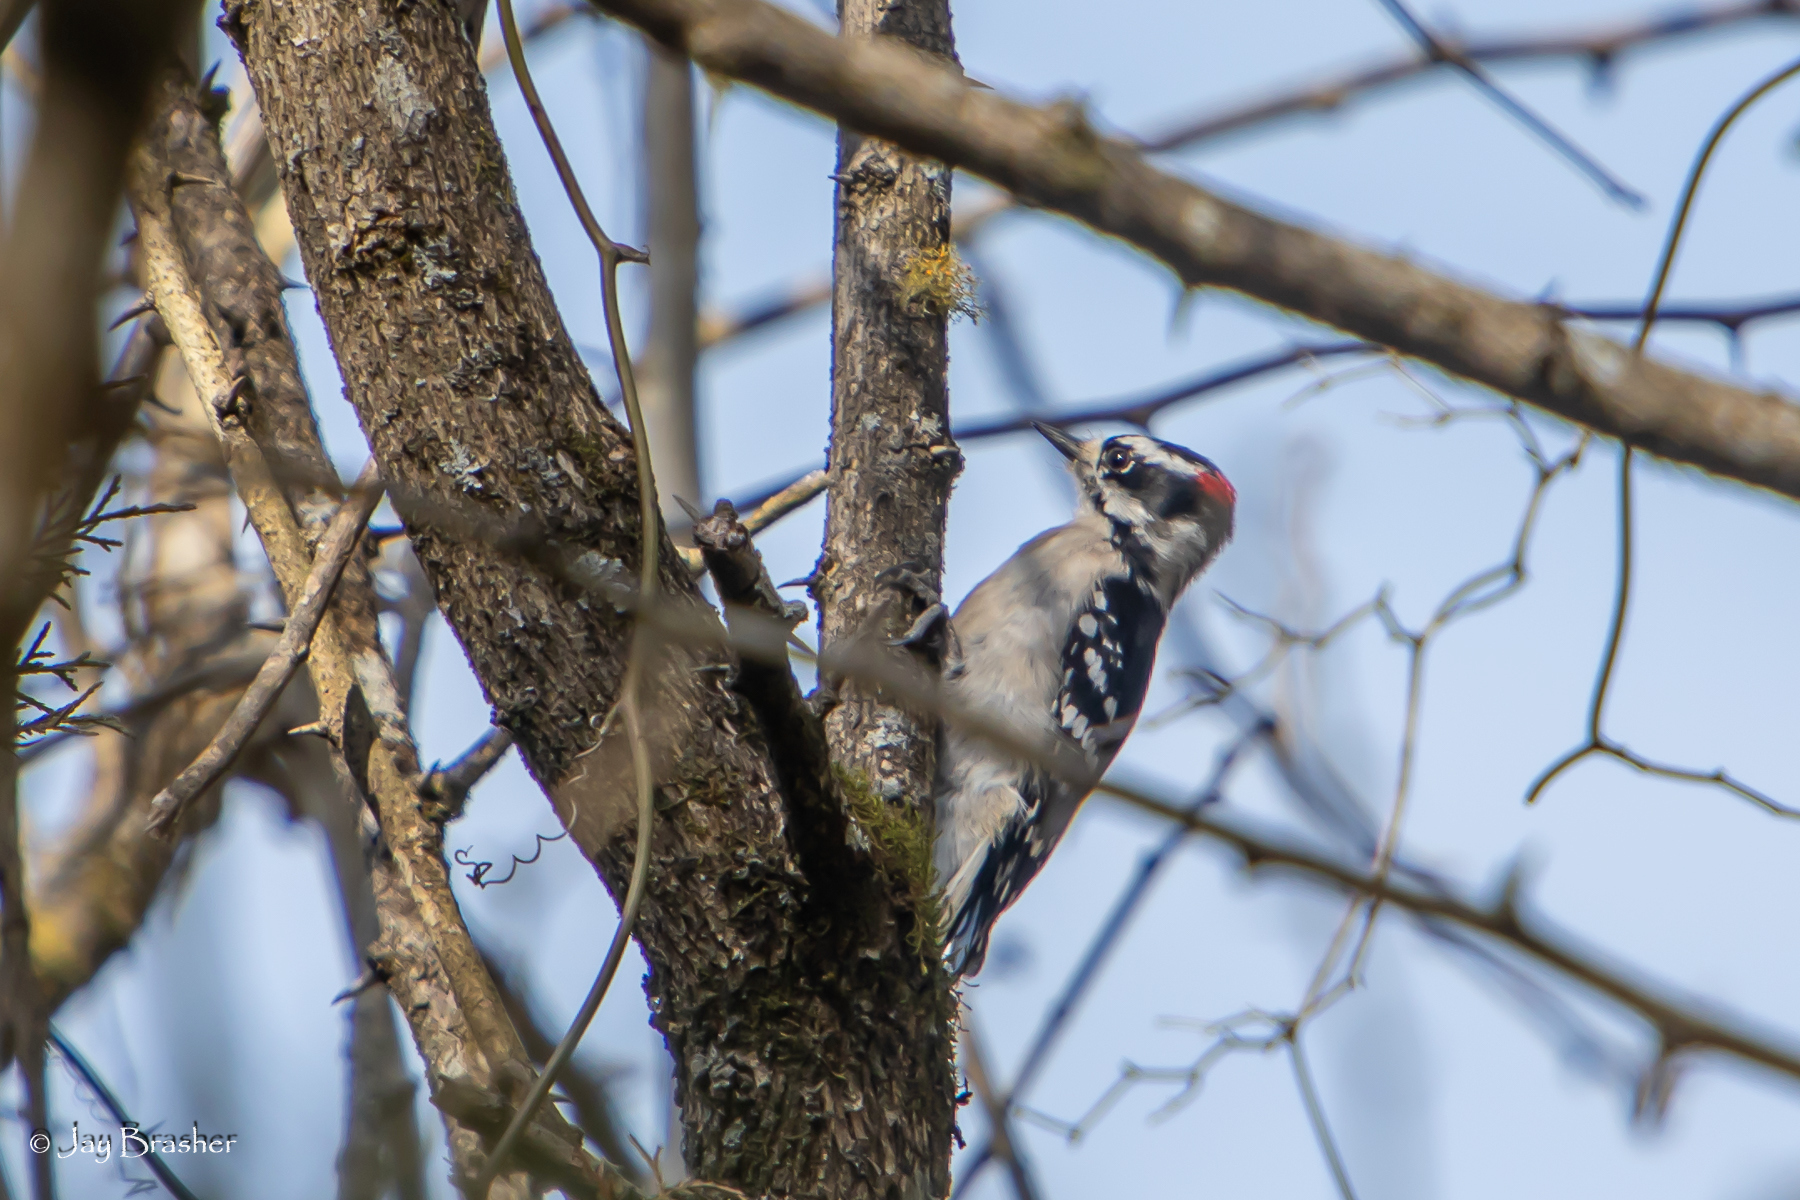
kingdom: Animalia
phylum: Chordata
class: Aves
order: Piciformes
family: Picidae
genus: Dryobates
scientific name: Dryobates pubescens
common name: Downy woodpecker
